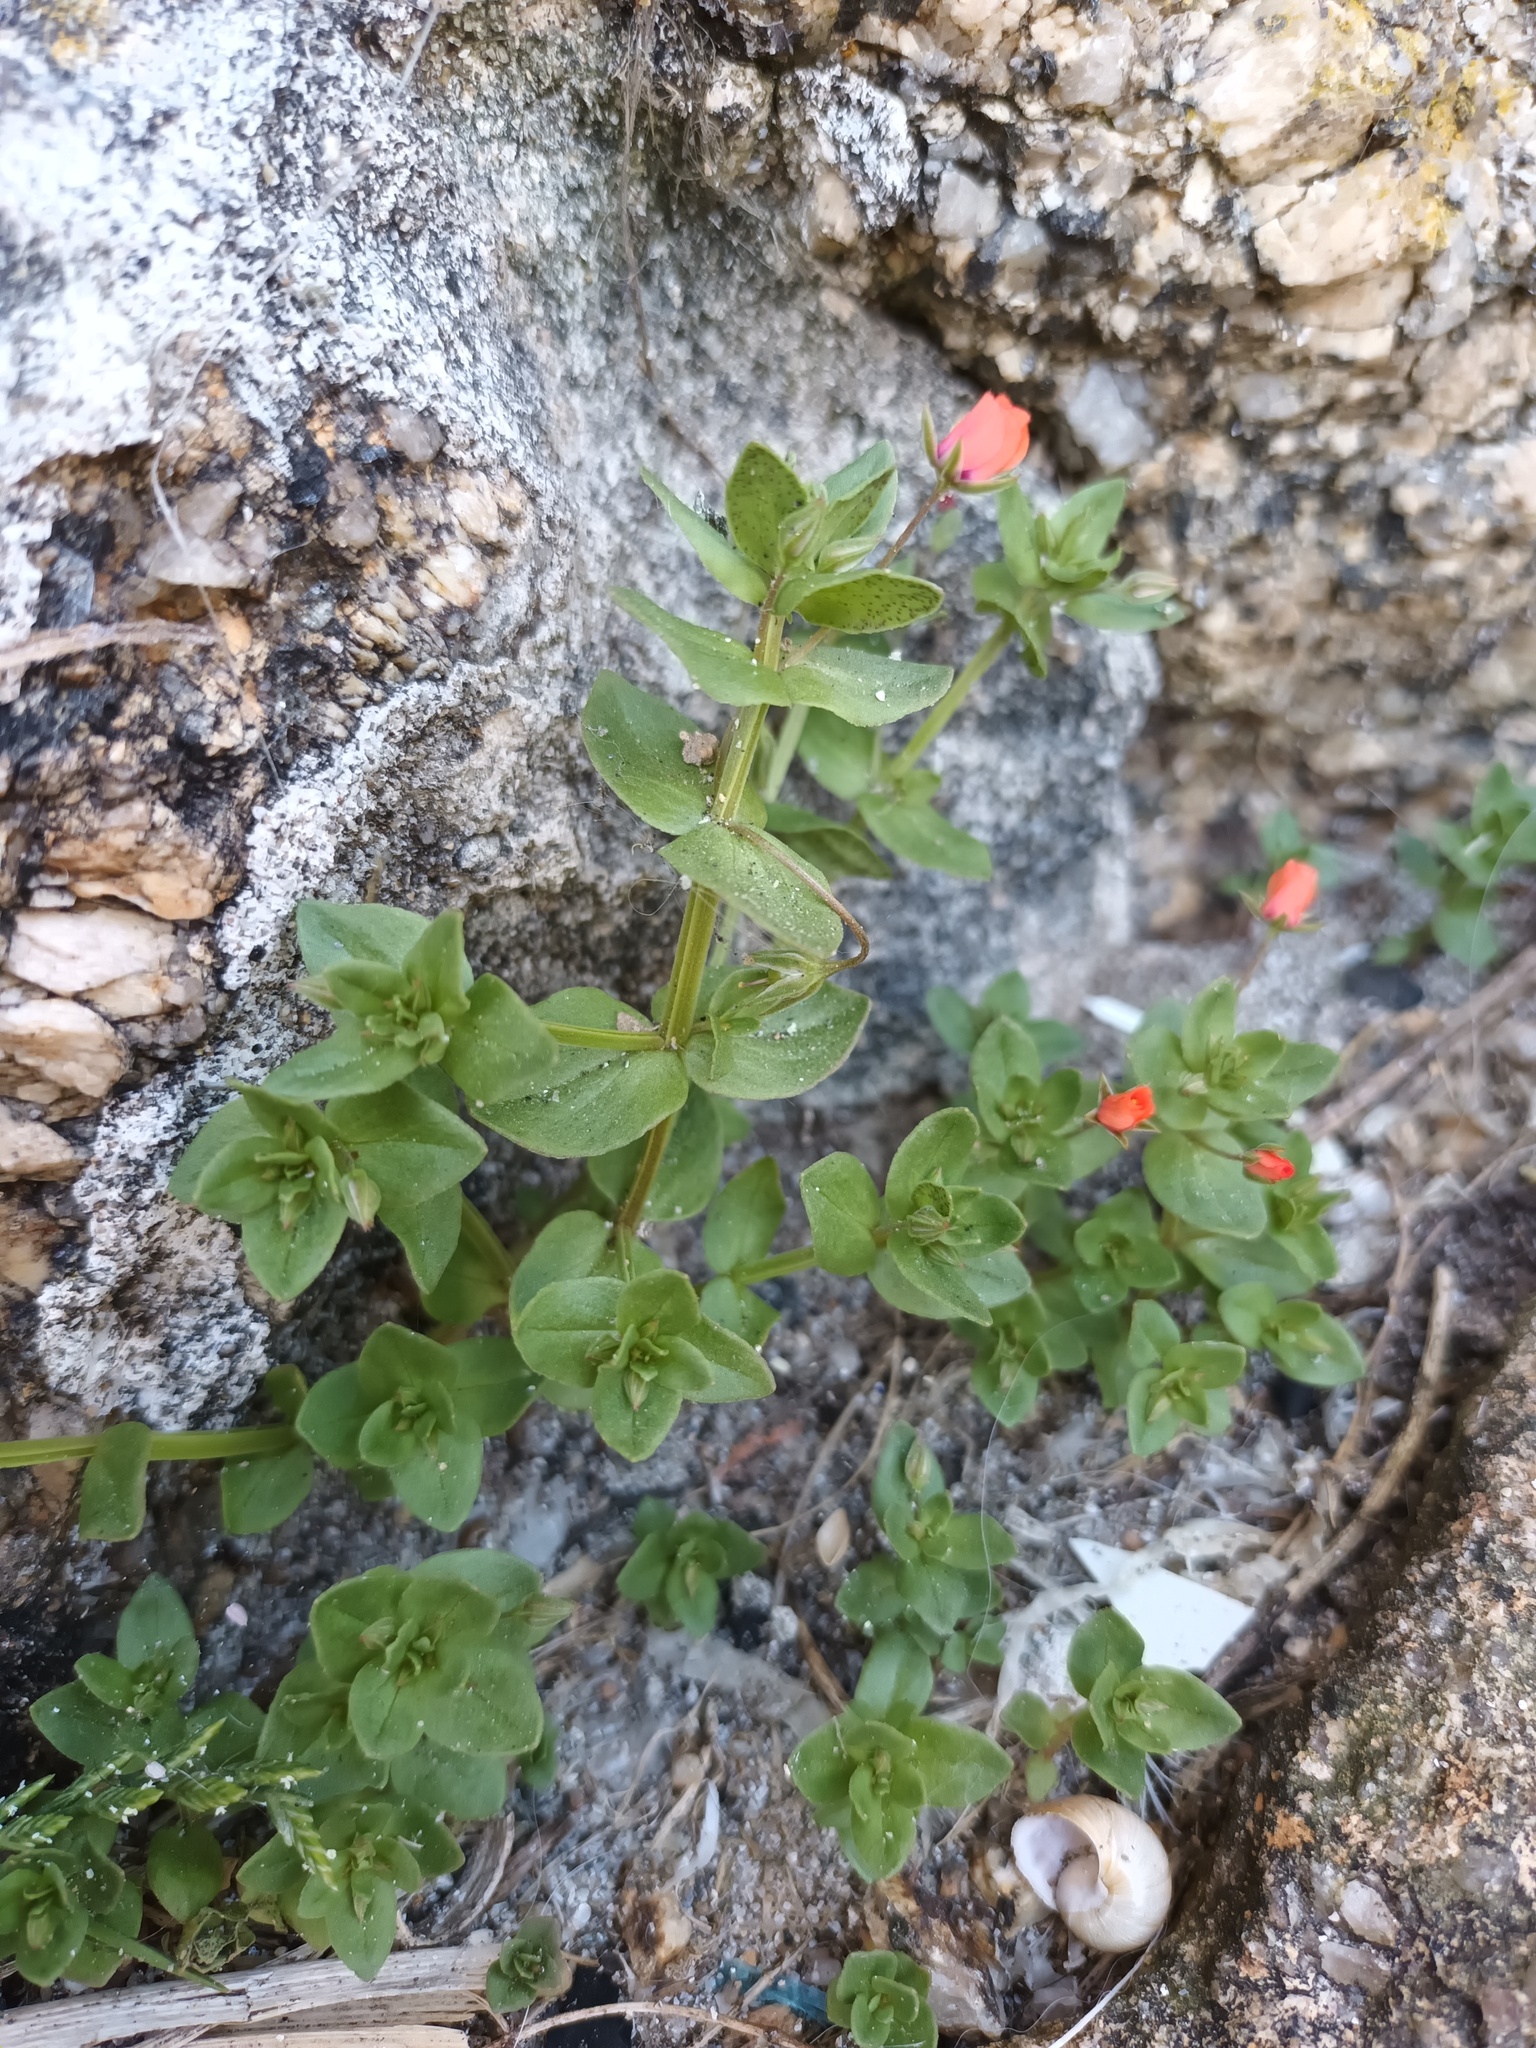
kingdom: Plantae
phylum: Tracheophyta
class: Magnoliopsida
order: Ericales
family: Primulaceae
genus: Lysimachia
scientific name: Lysimachia arvensis
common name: Scarlet pimpernel
